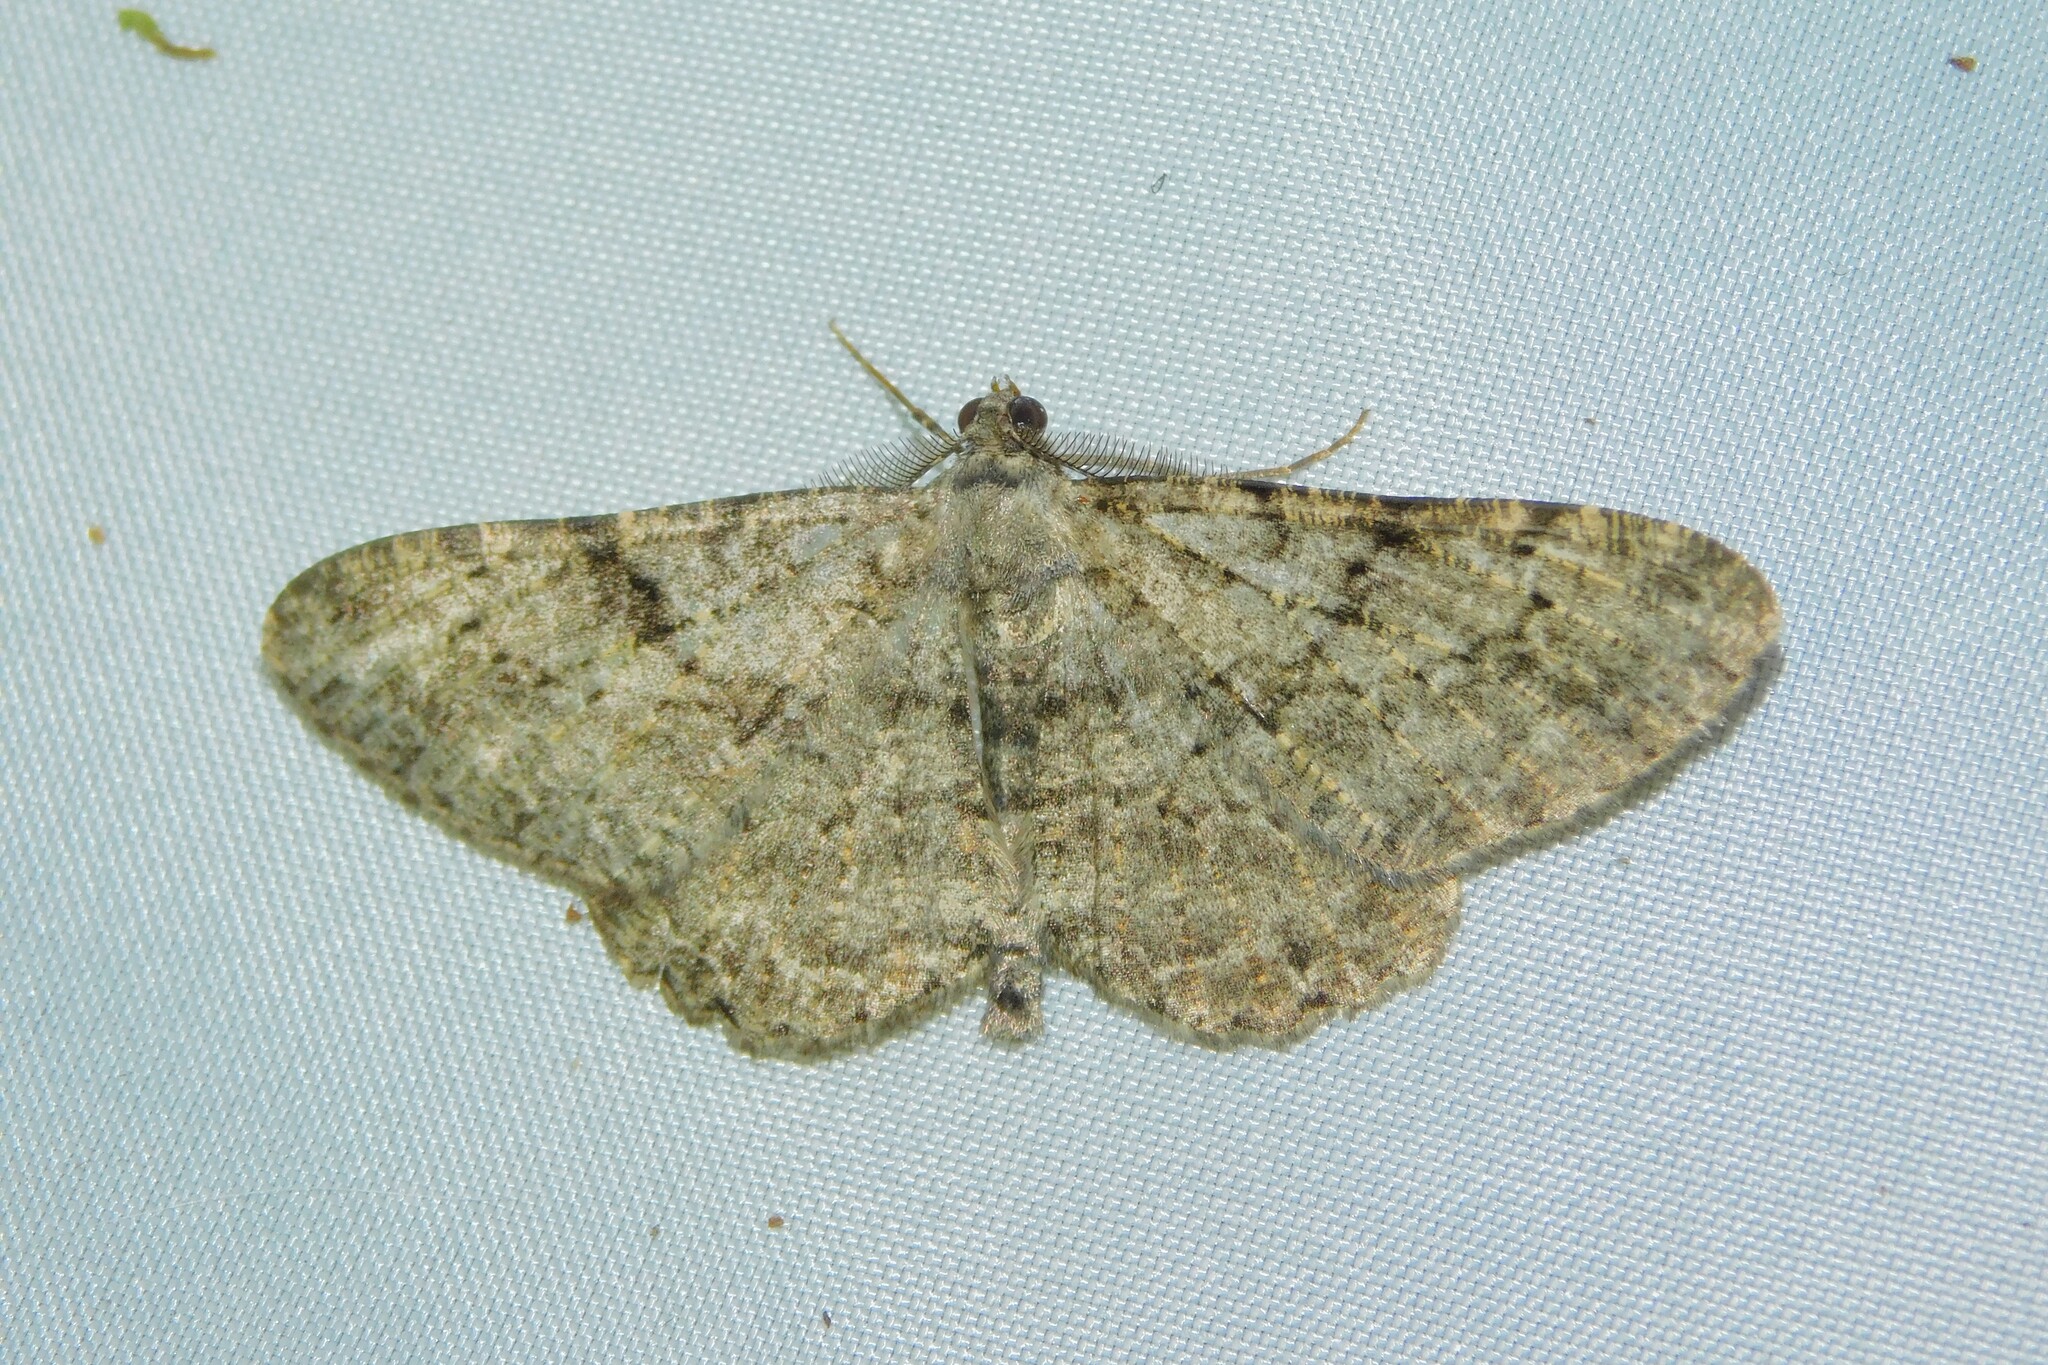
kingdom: Animalia
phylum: Arthropoda
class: Insecta
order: Lepidoptera
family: Geometridae
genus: Peribatodes
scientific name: Peribatodes rhomboidaria
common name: Willow beauty
